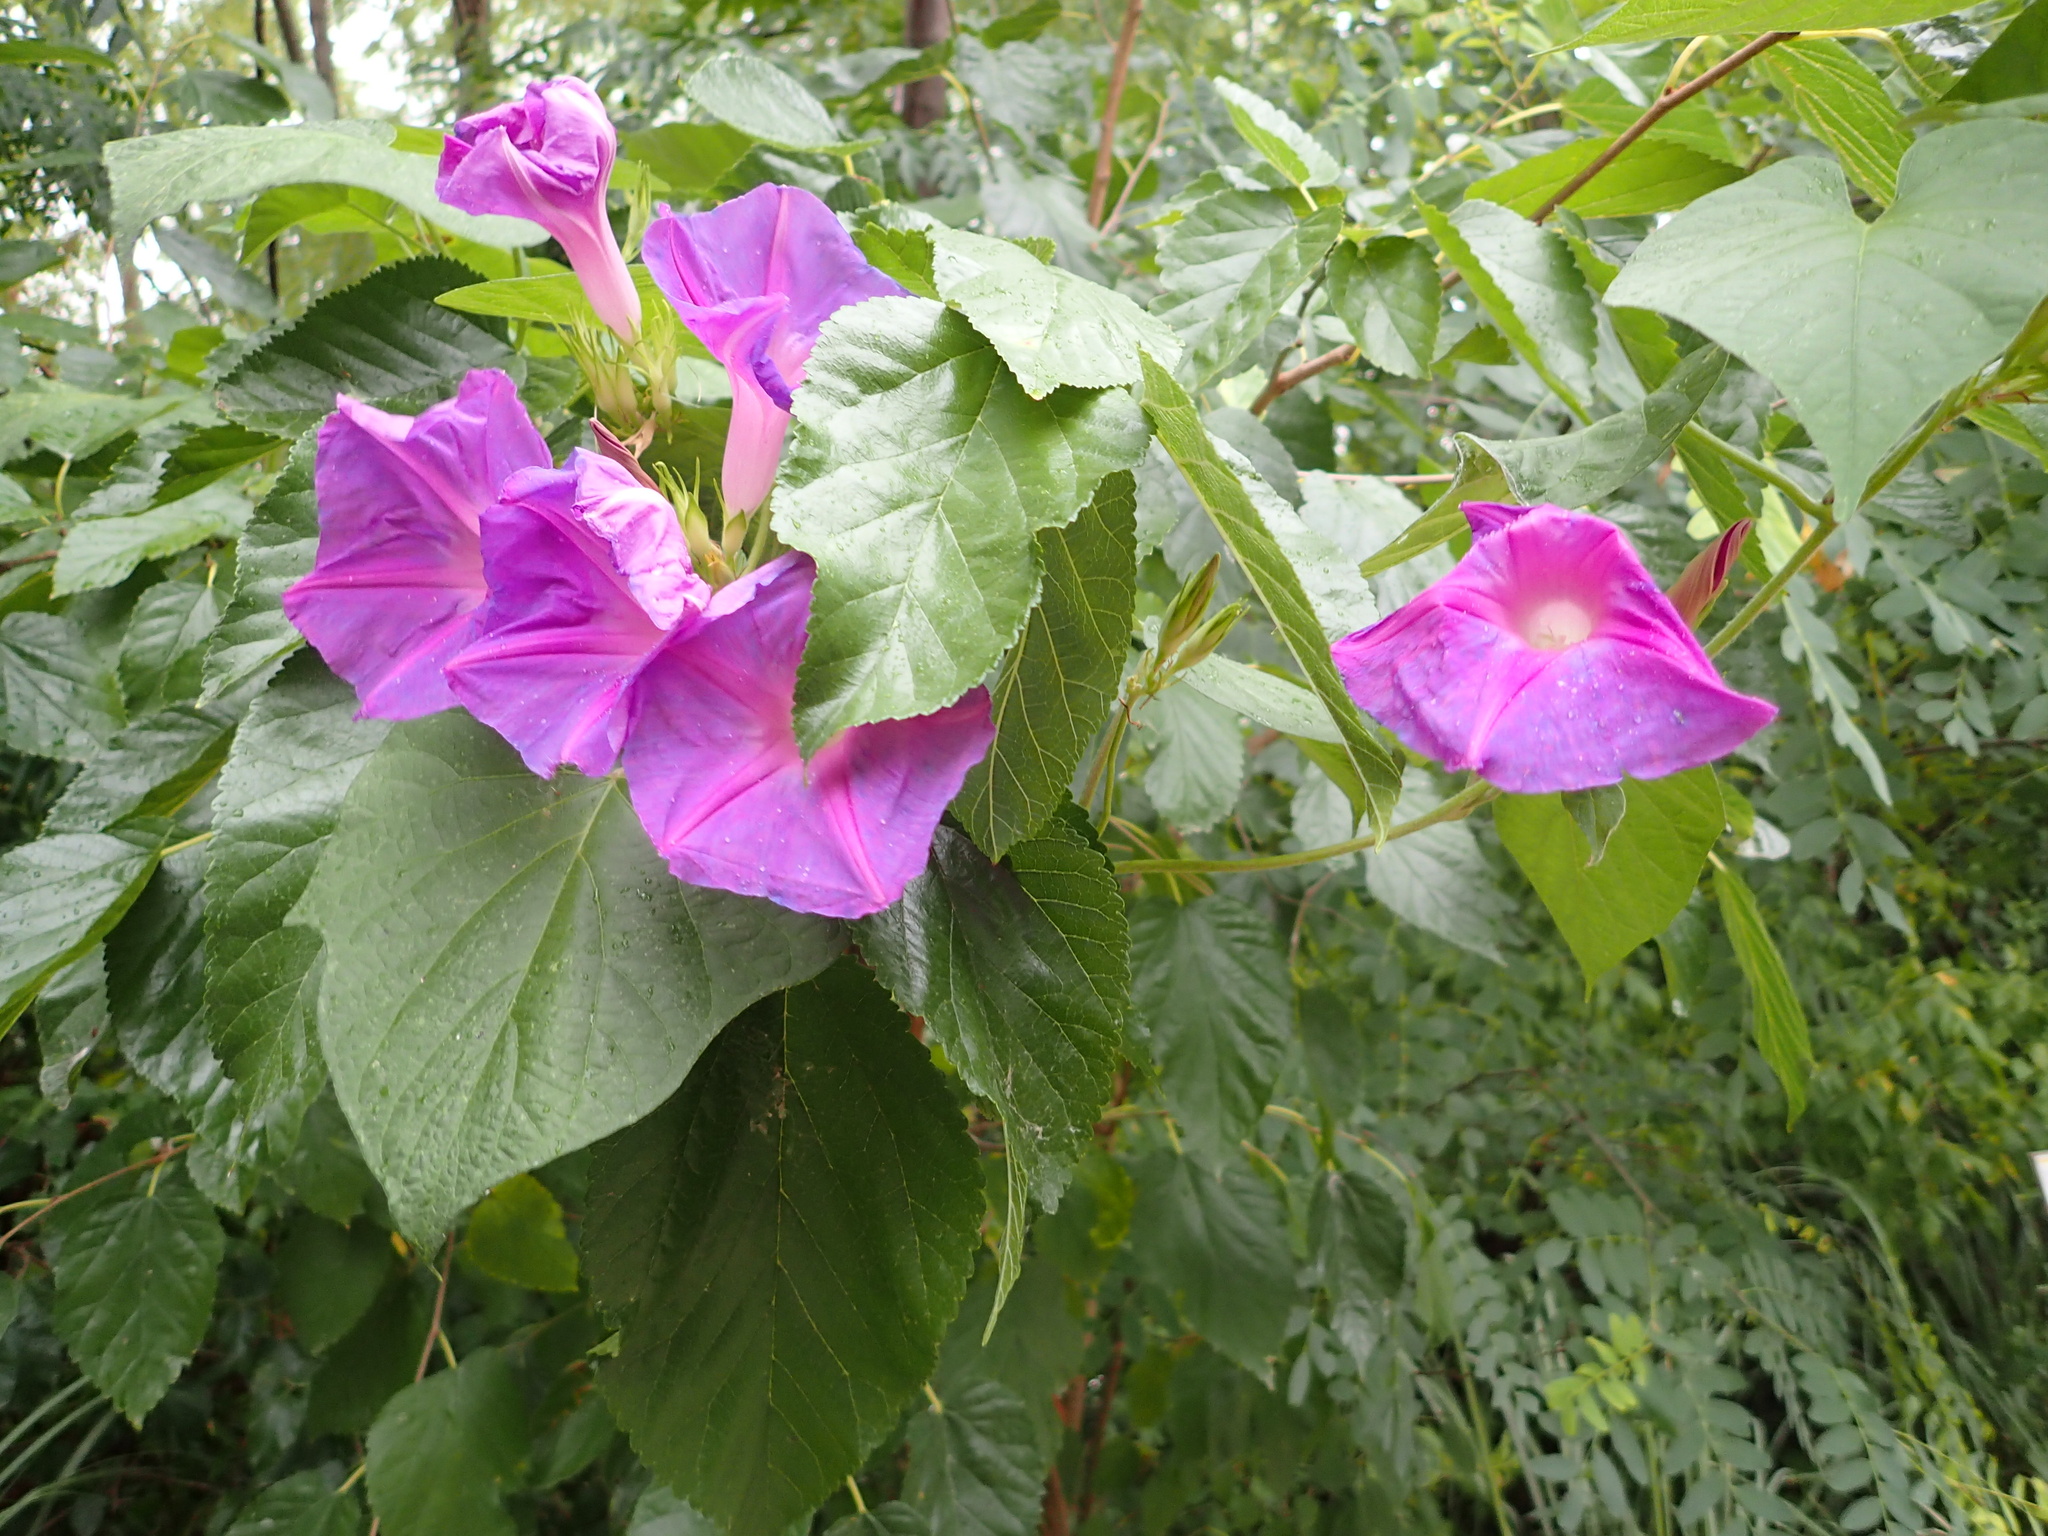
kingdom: Plantae
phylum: Tracheophyta
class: Magnoliopsida
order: Solanales
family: Convolvulaceae
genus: Ipomoea
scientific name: Ipomoea indica
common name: Blue dawnflower
